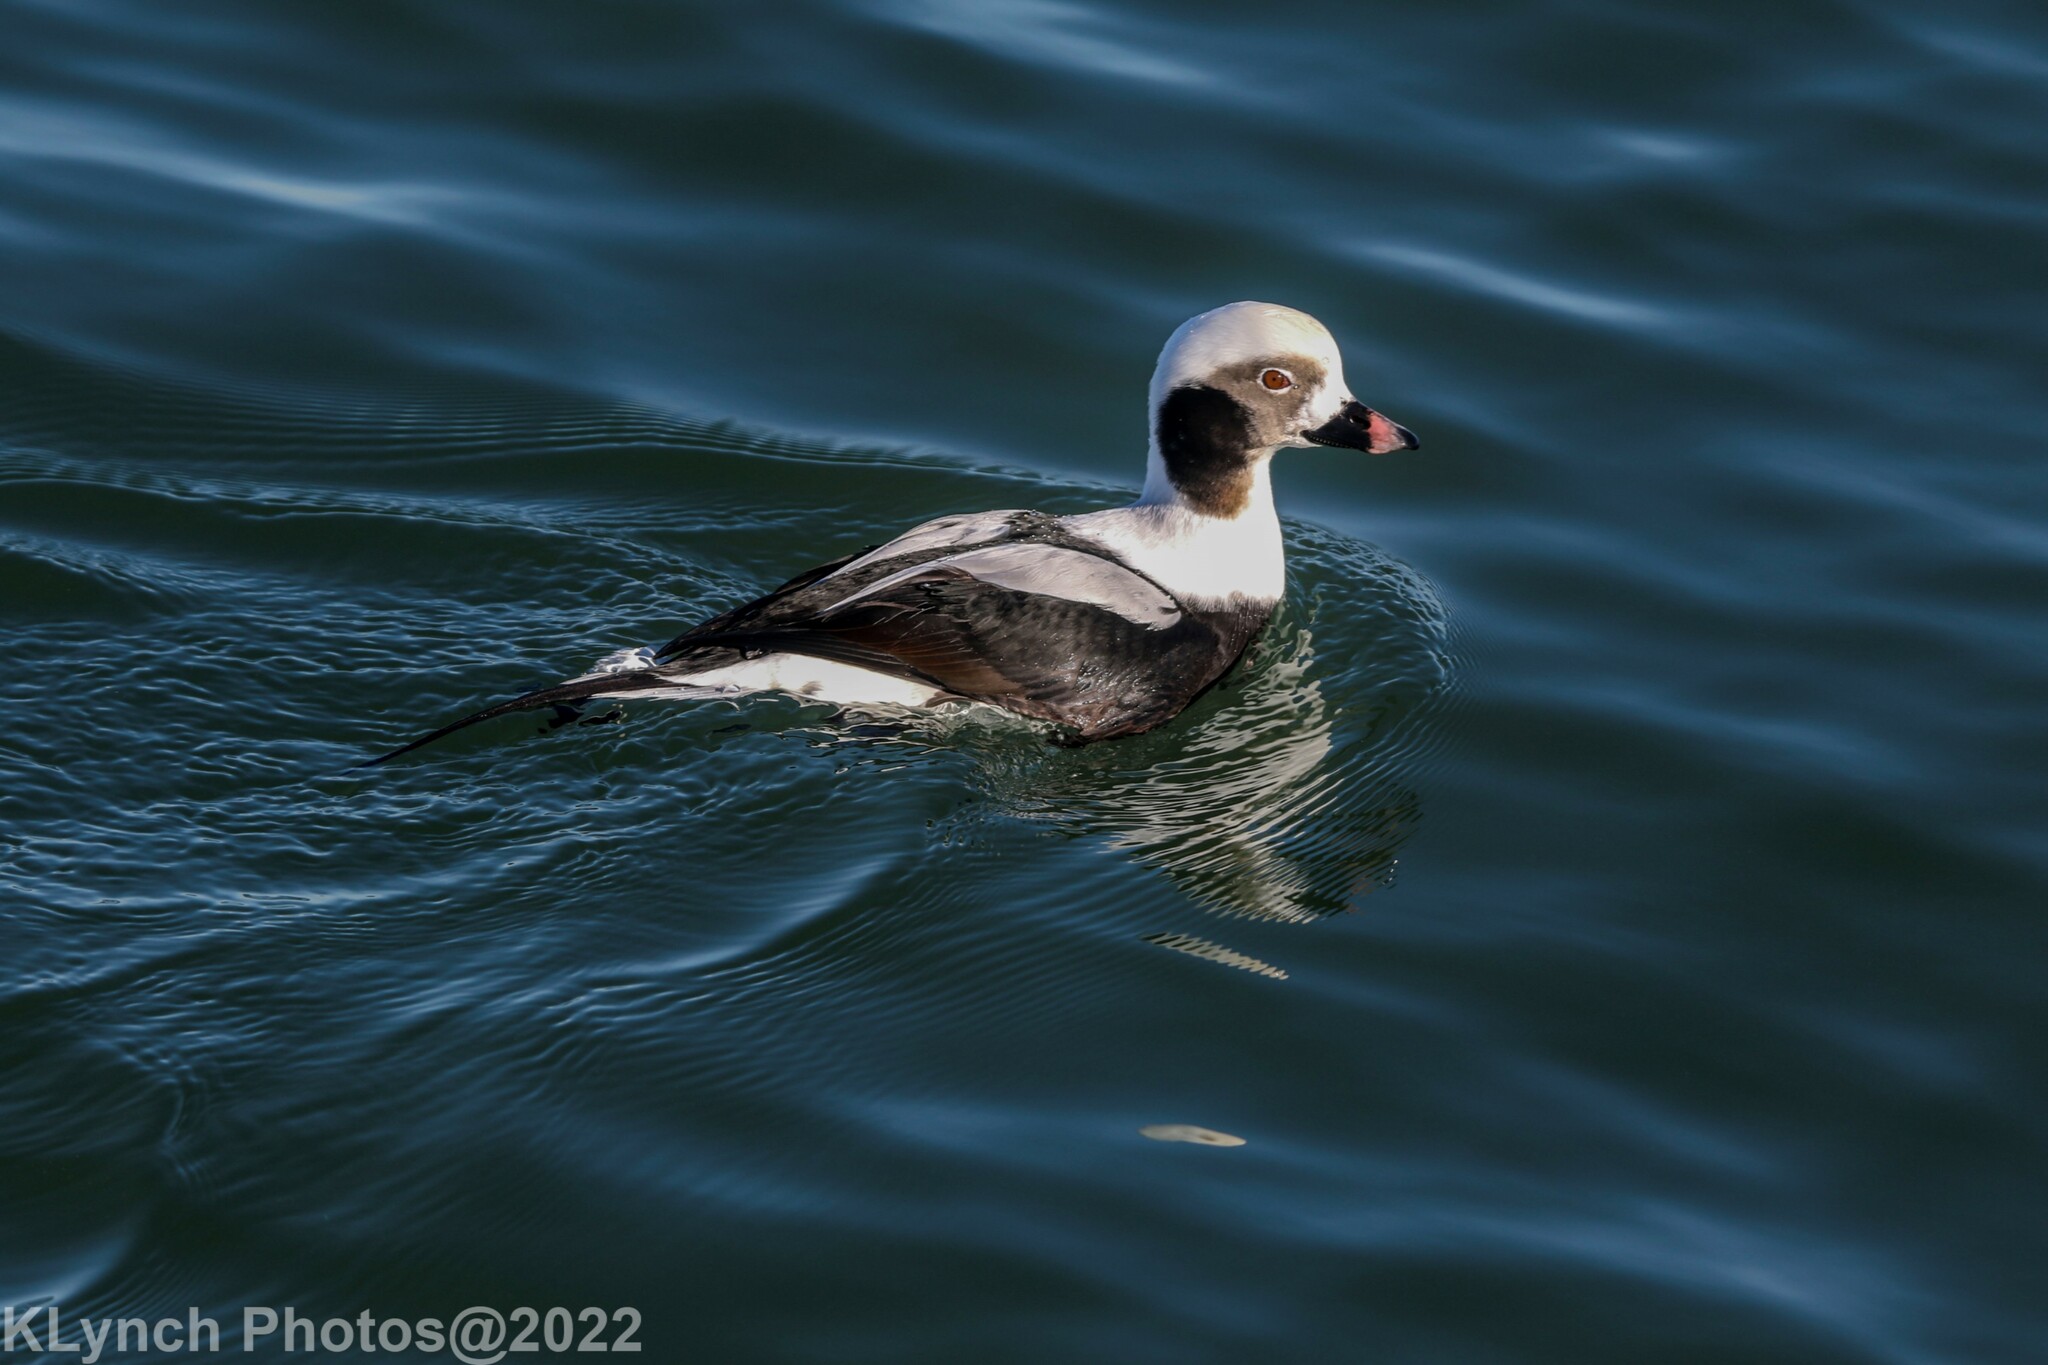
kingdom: Animalia
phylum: Chordata
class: Aves
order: Anseriformes
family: Anatidae
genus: Clangula
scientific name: Clangula hyemalis
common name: Long-tailed duck
